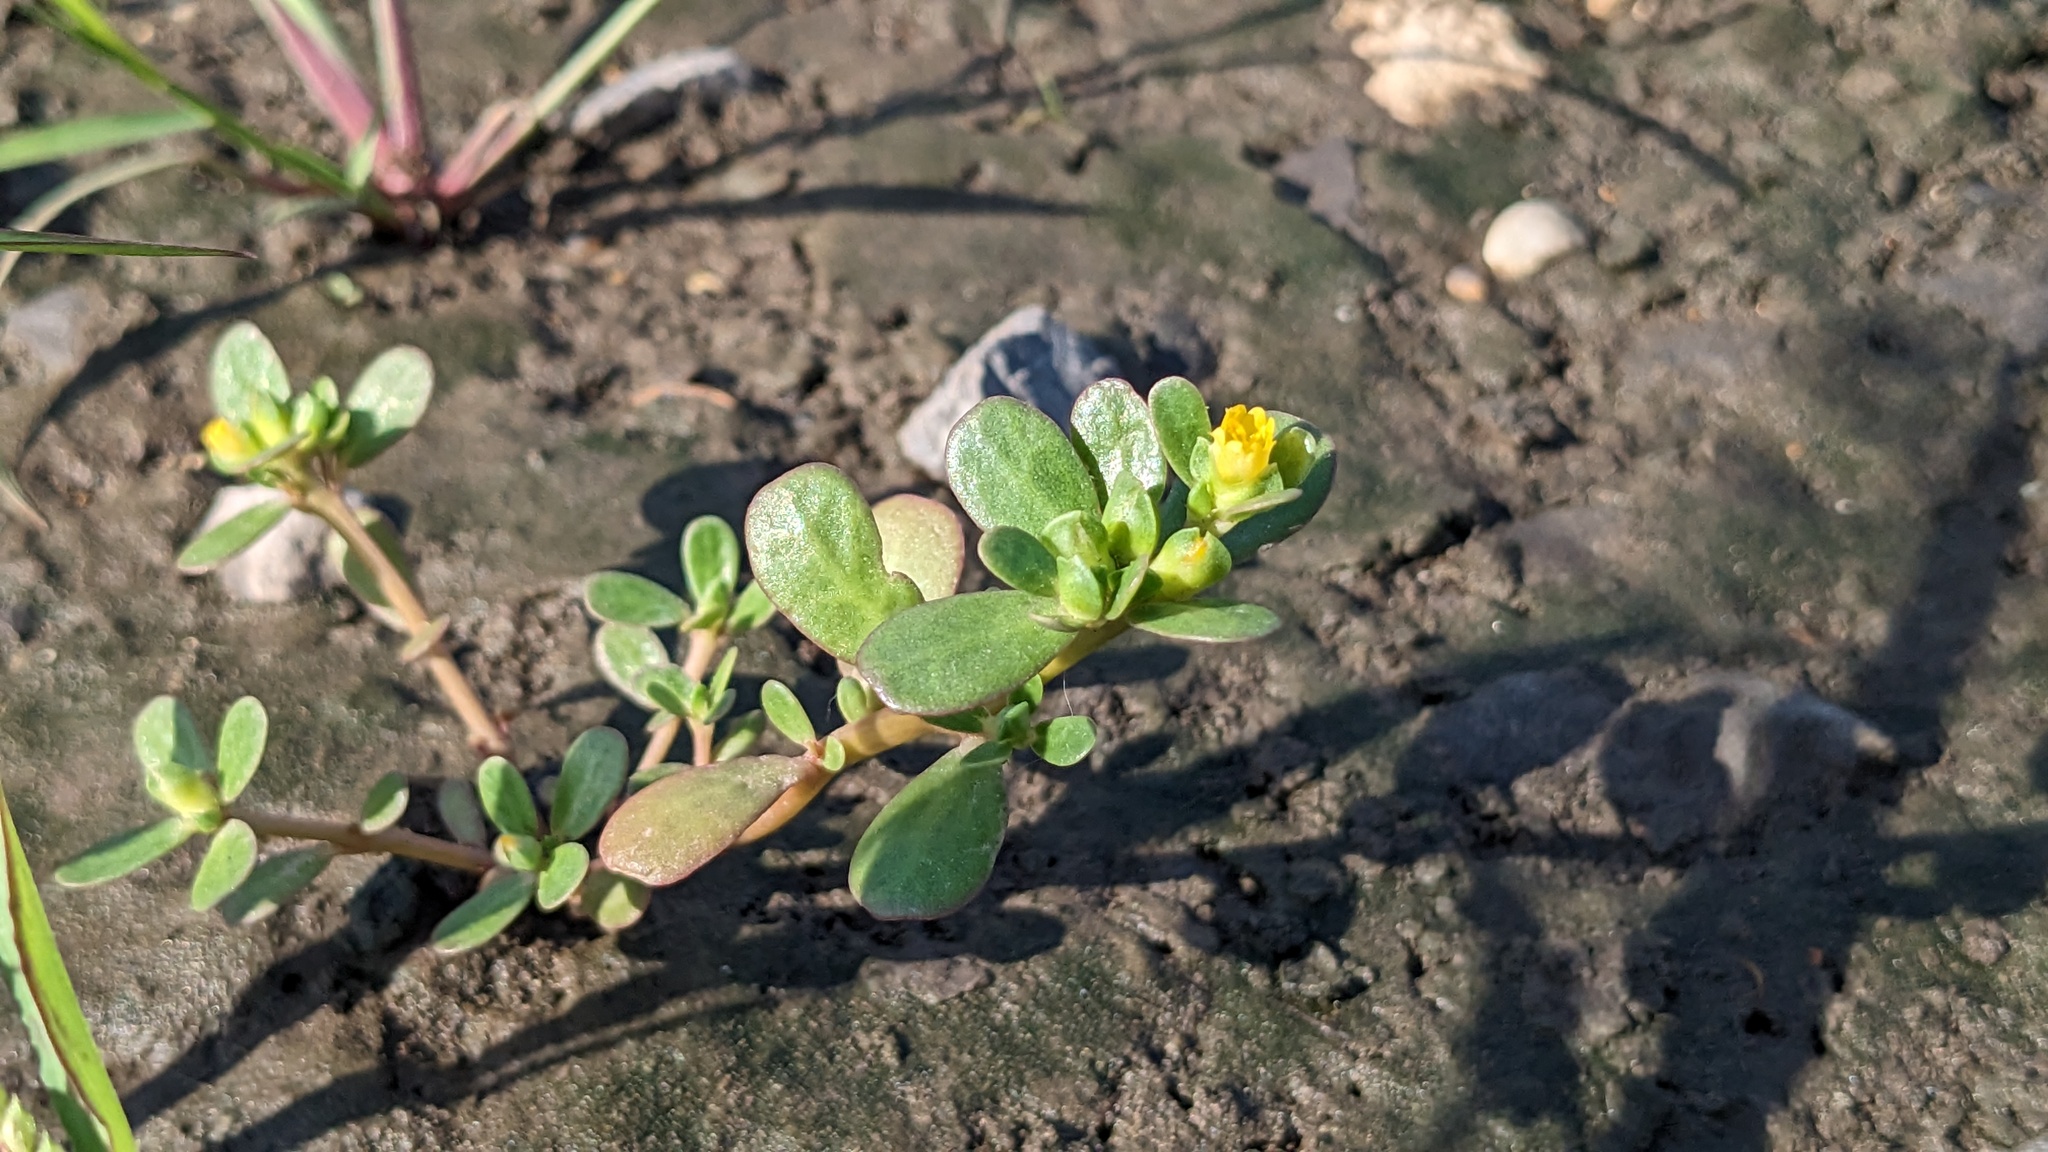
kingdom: Plantae
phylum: Tracheophyta
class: Magnoliopsida
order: Caryophyllales
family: Portulacaceae
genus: Portulaca
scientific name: Portulaca oleracea
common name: Common purslane
